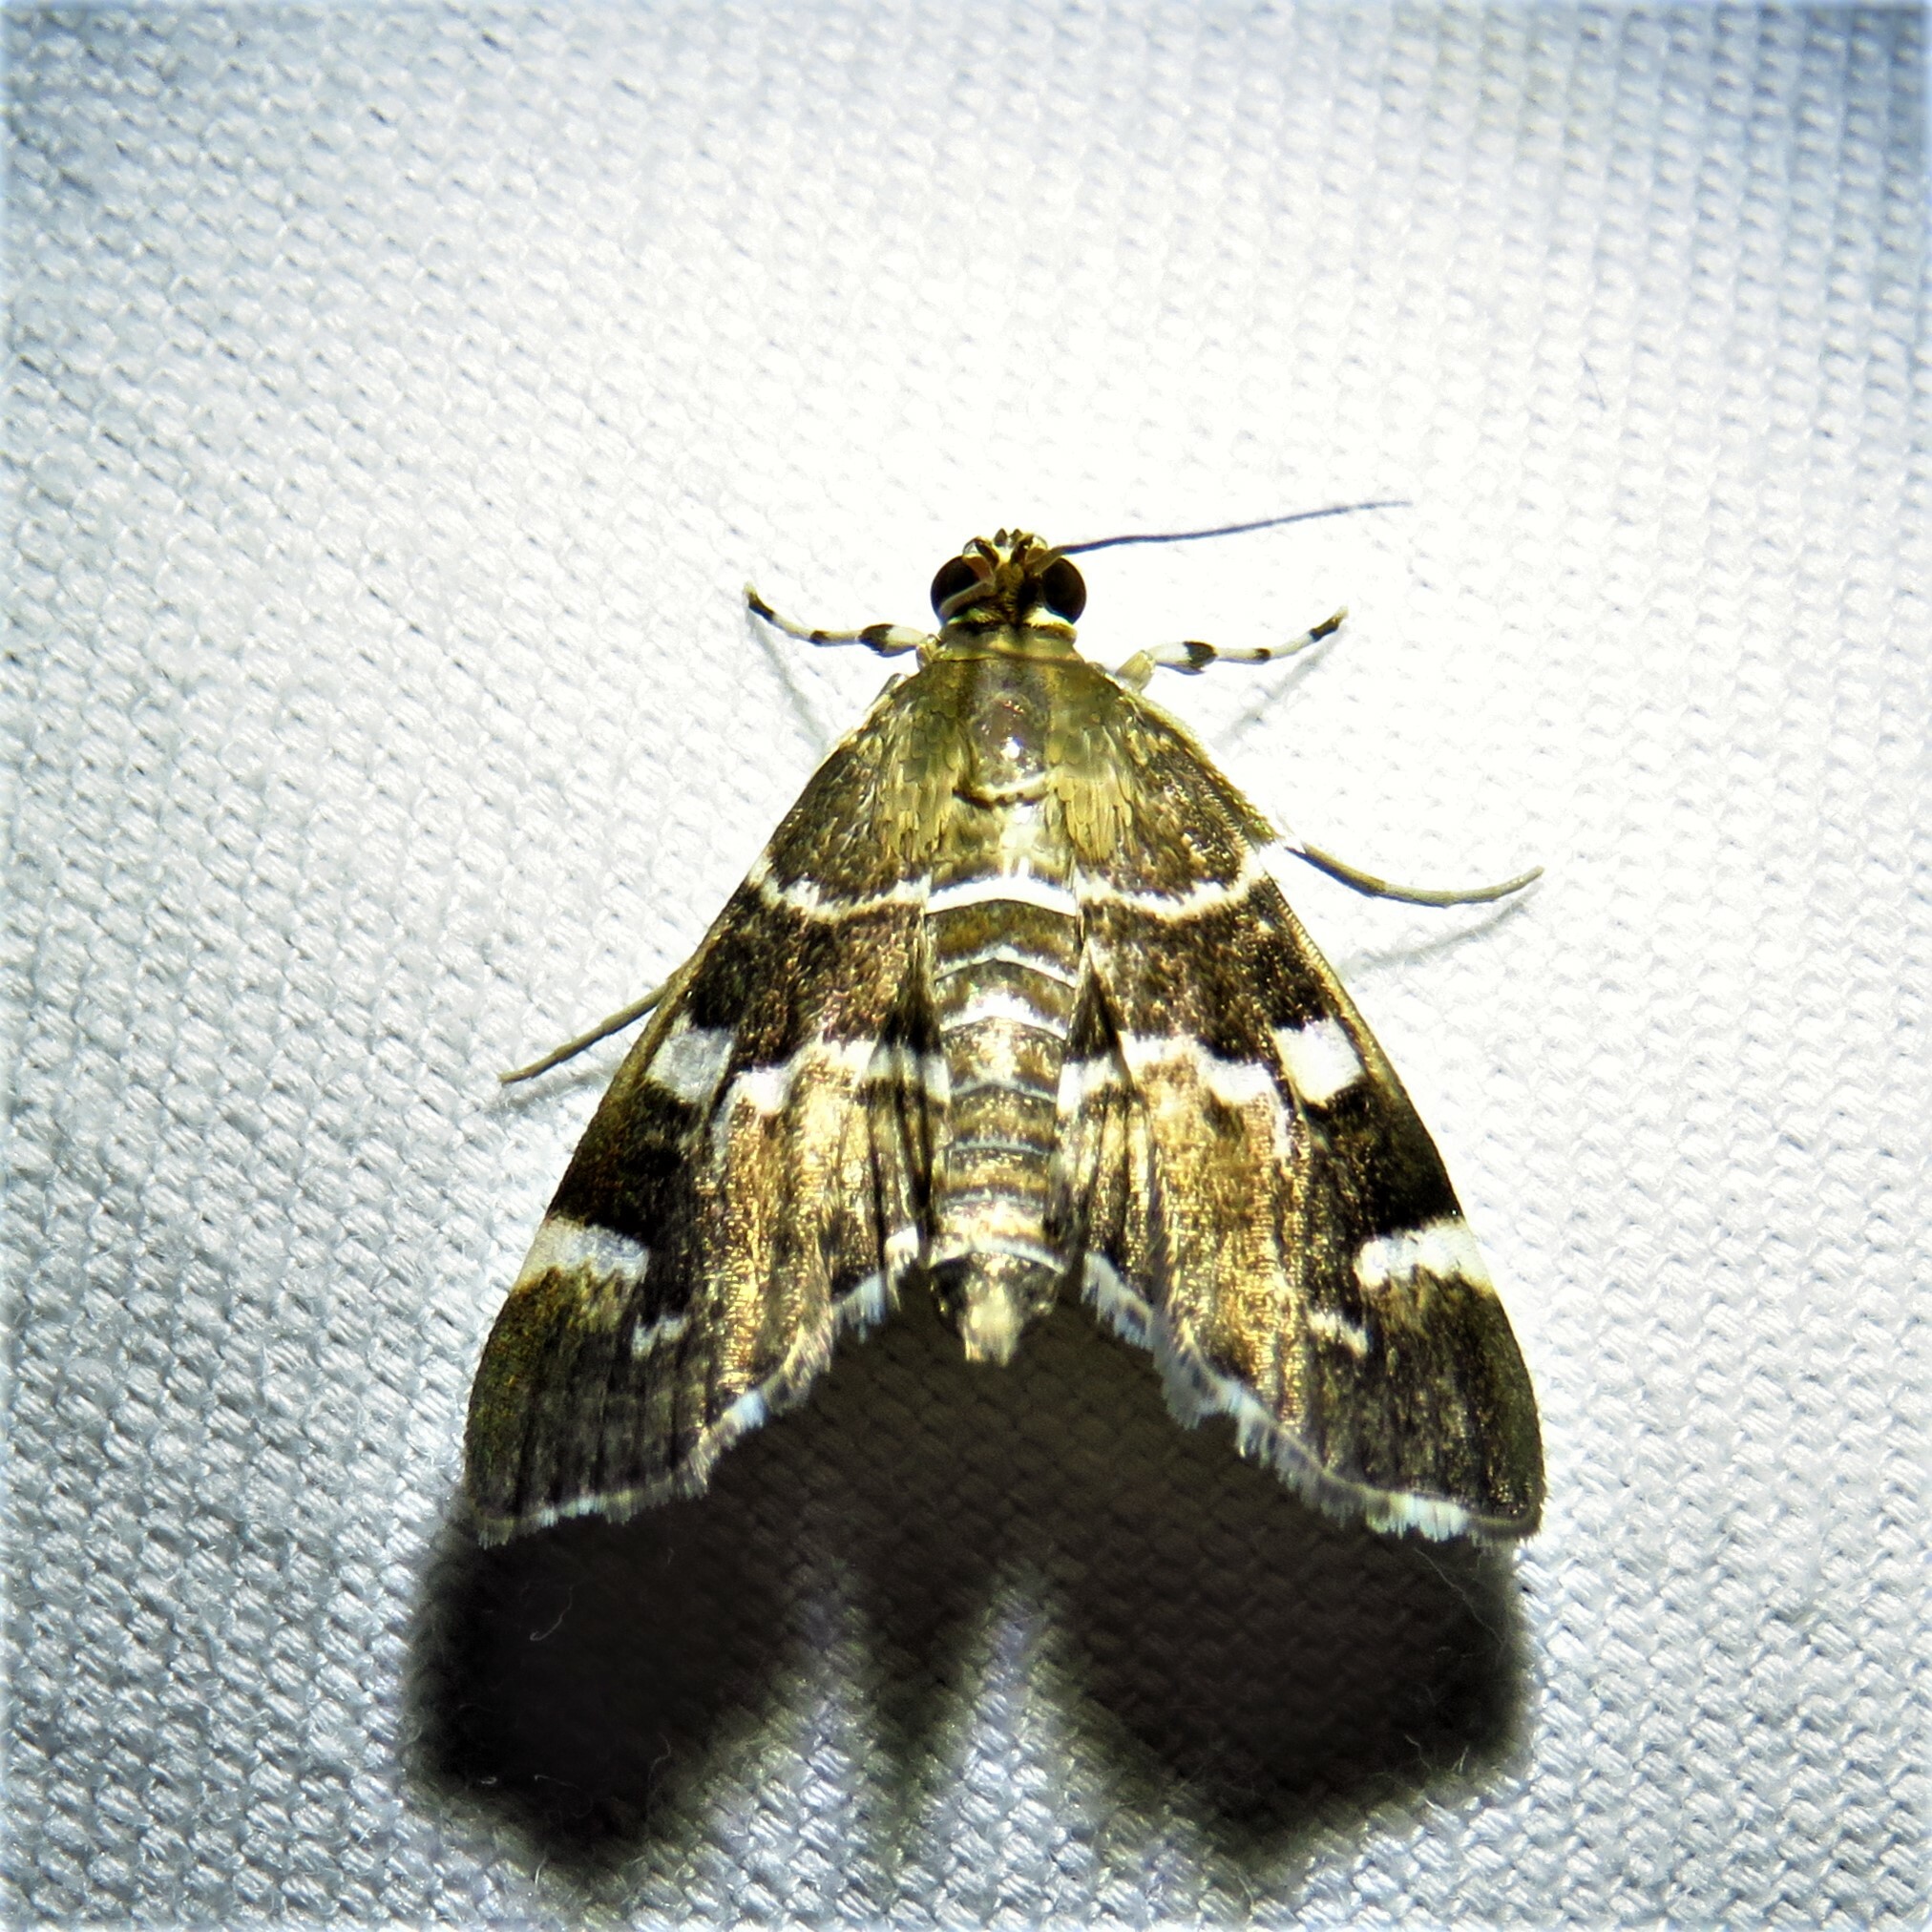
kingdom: Animalia
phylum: Arthropoda
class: Insecta
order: Lepidoptera
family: Crambidae
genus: Hymenia
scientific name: Hymenia perspectalis
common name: Spotted beet webworm
